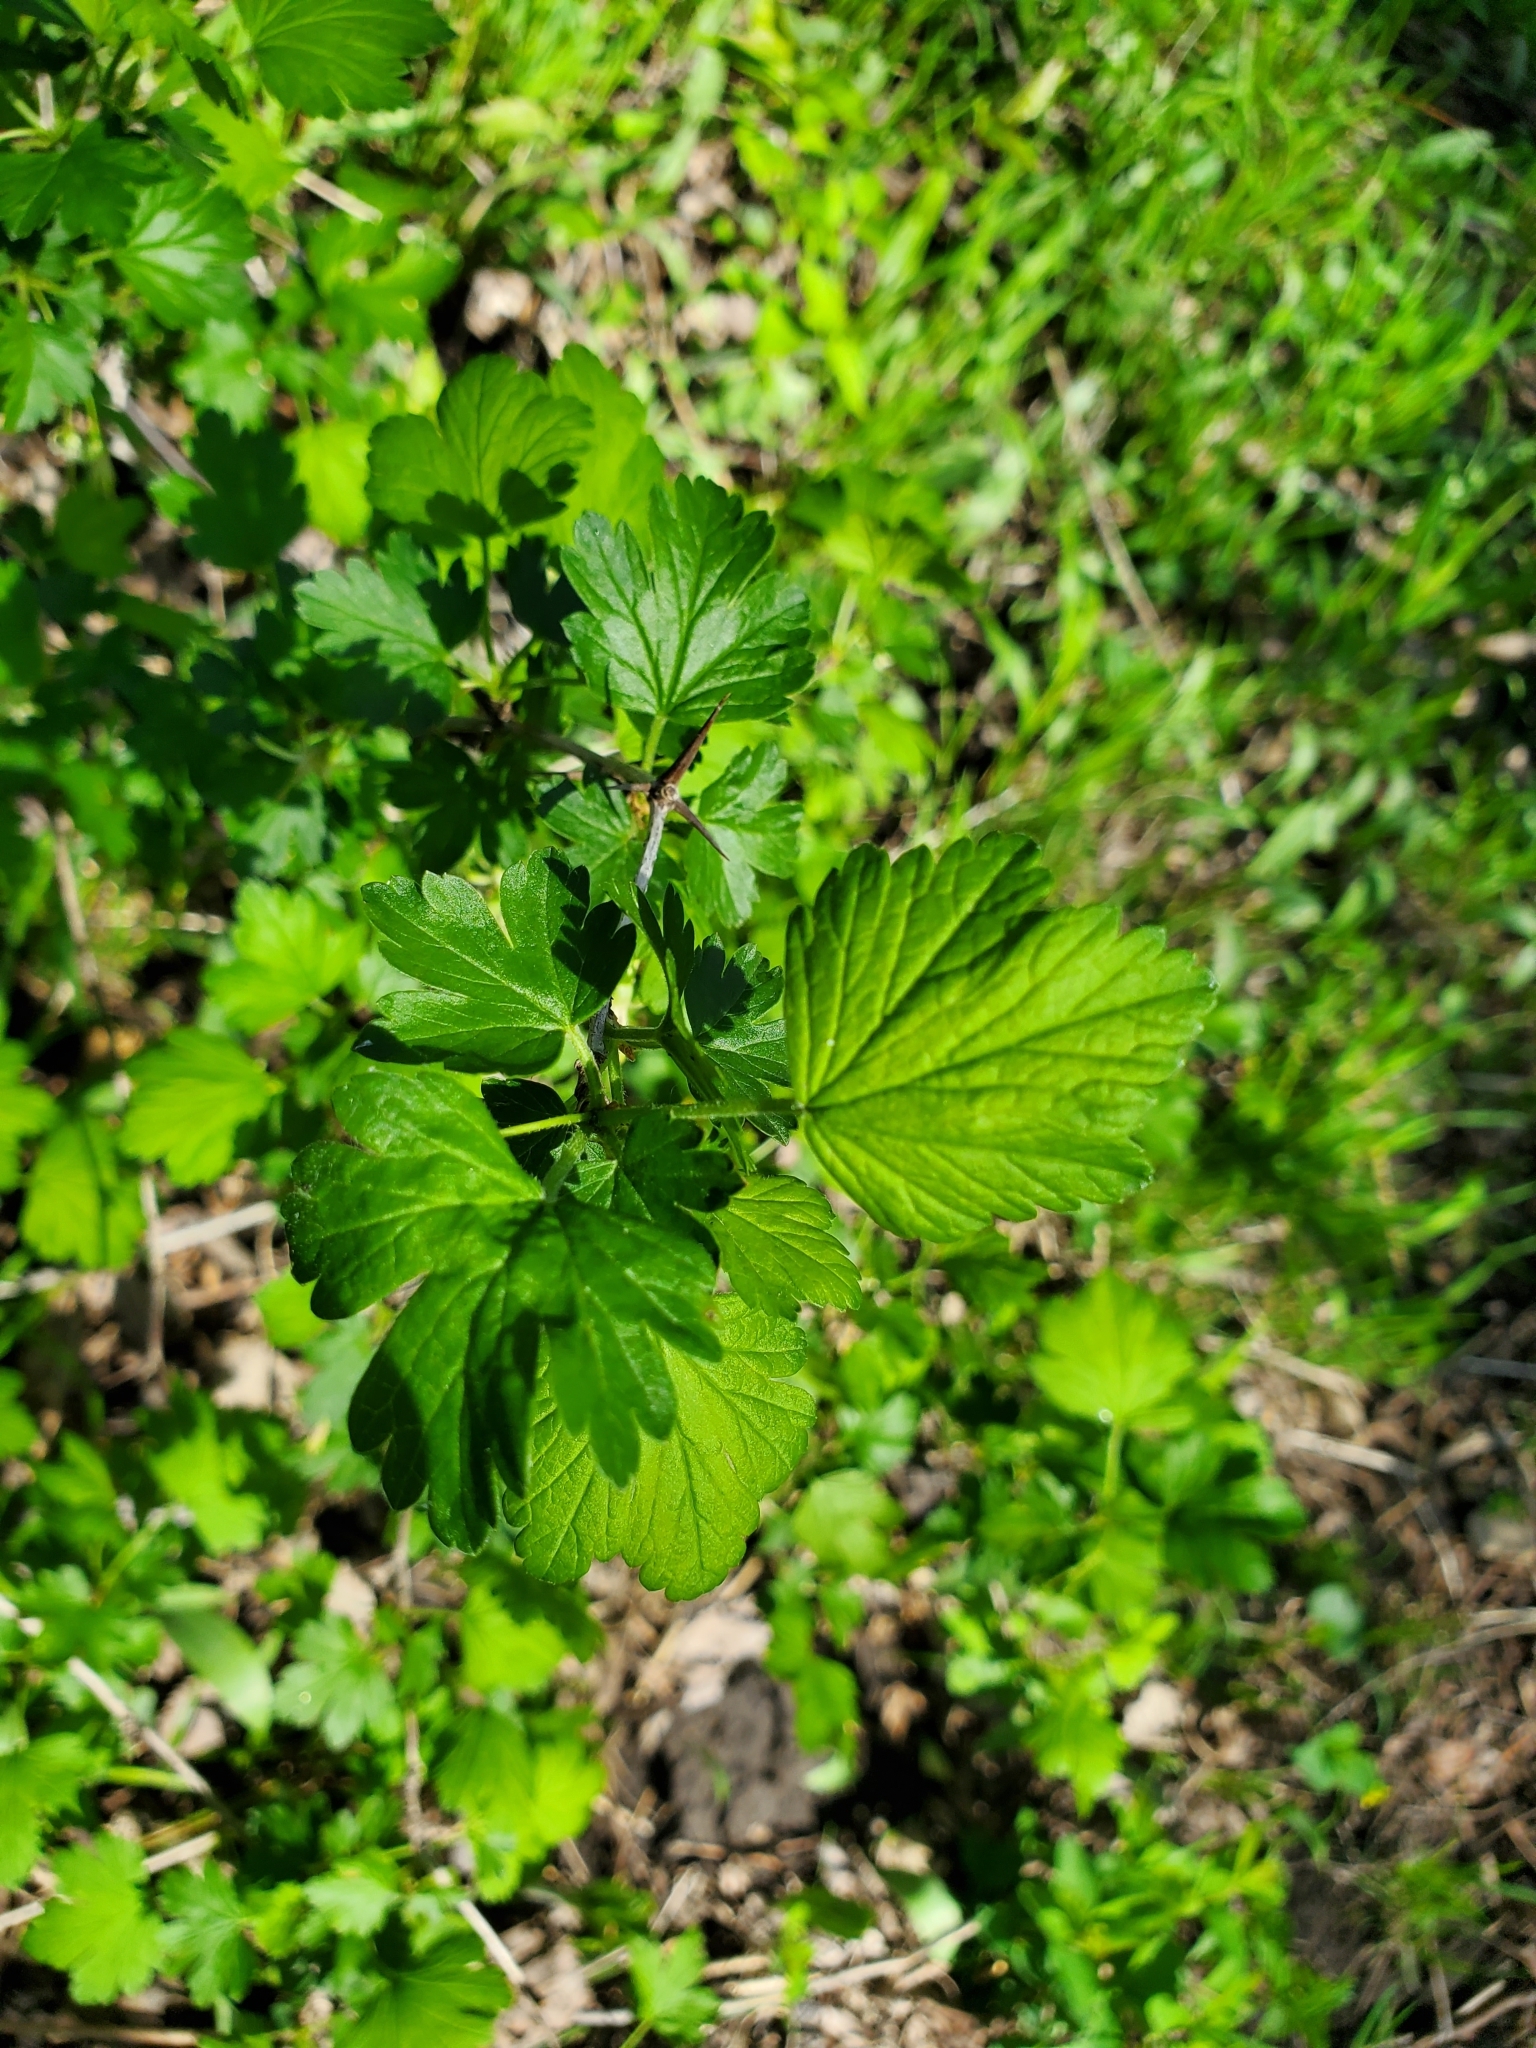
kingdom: Plantae
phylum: Tracheophyta
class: Magnoliopsida
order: Saxifragales
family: Grossulariaceae
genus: Ribes
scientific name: Ribes missouriense
